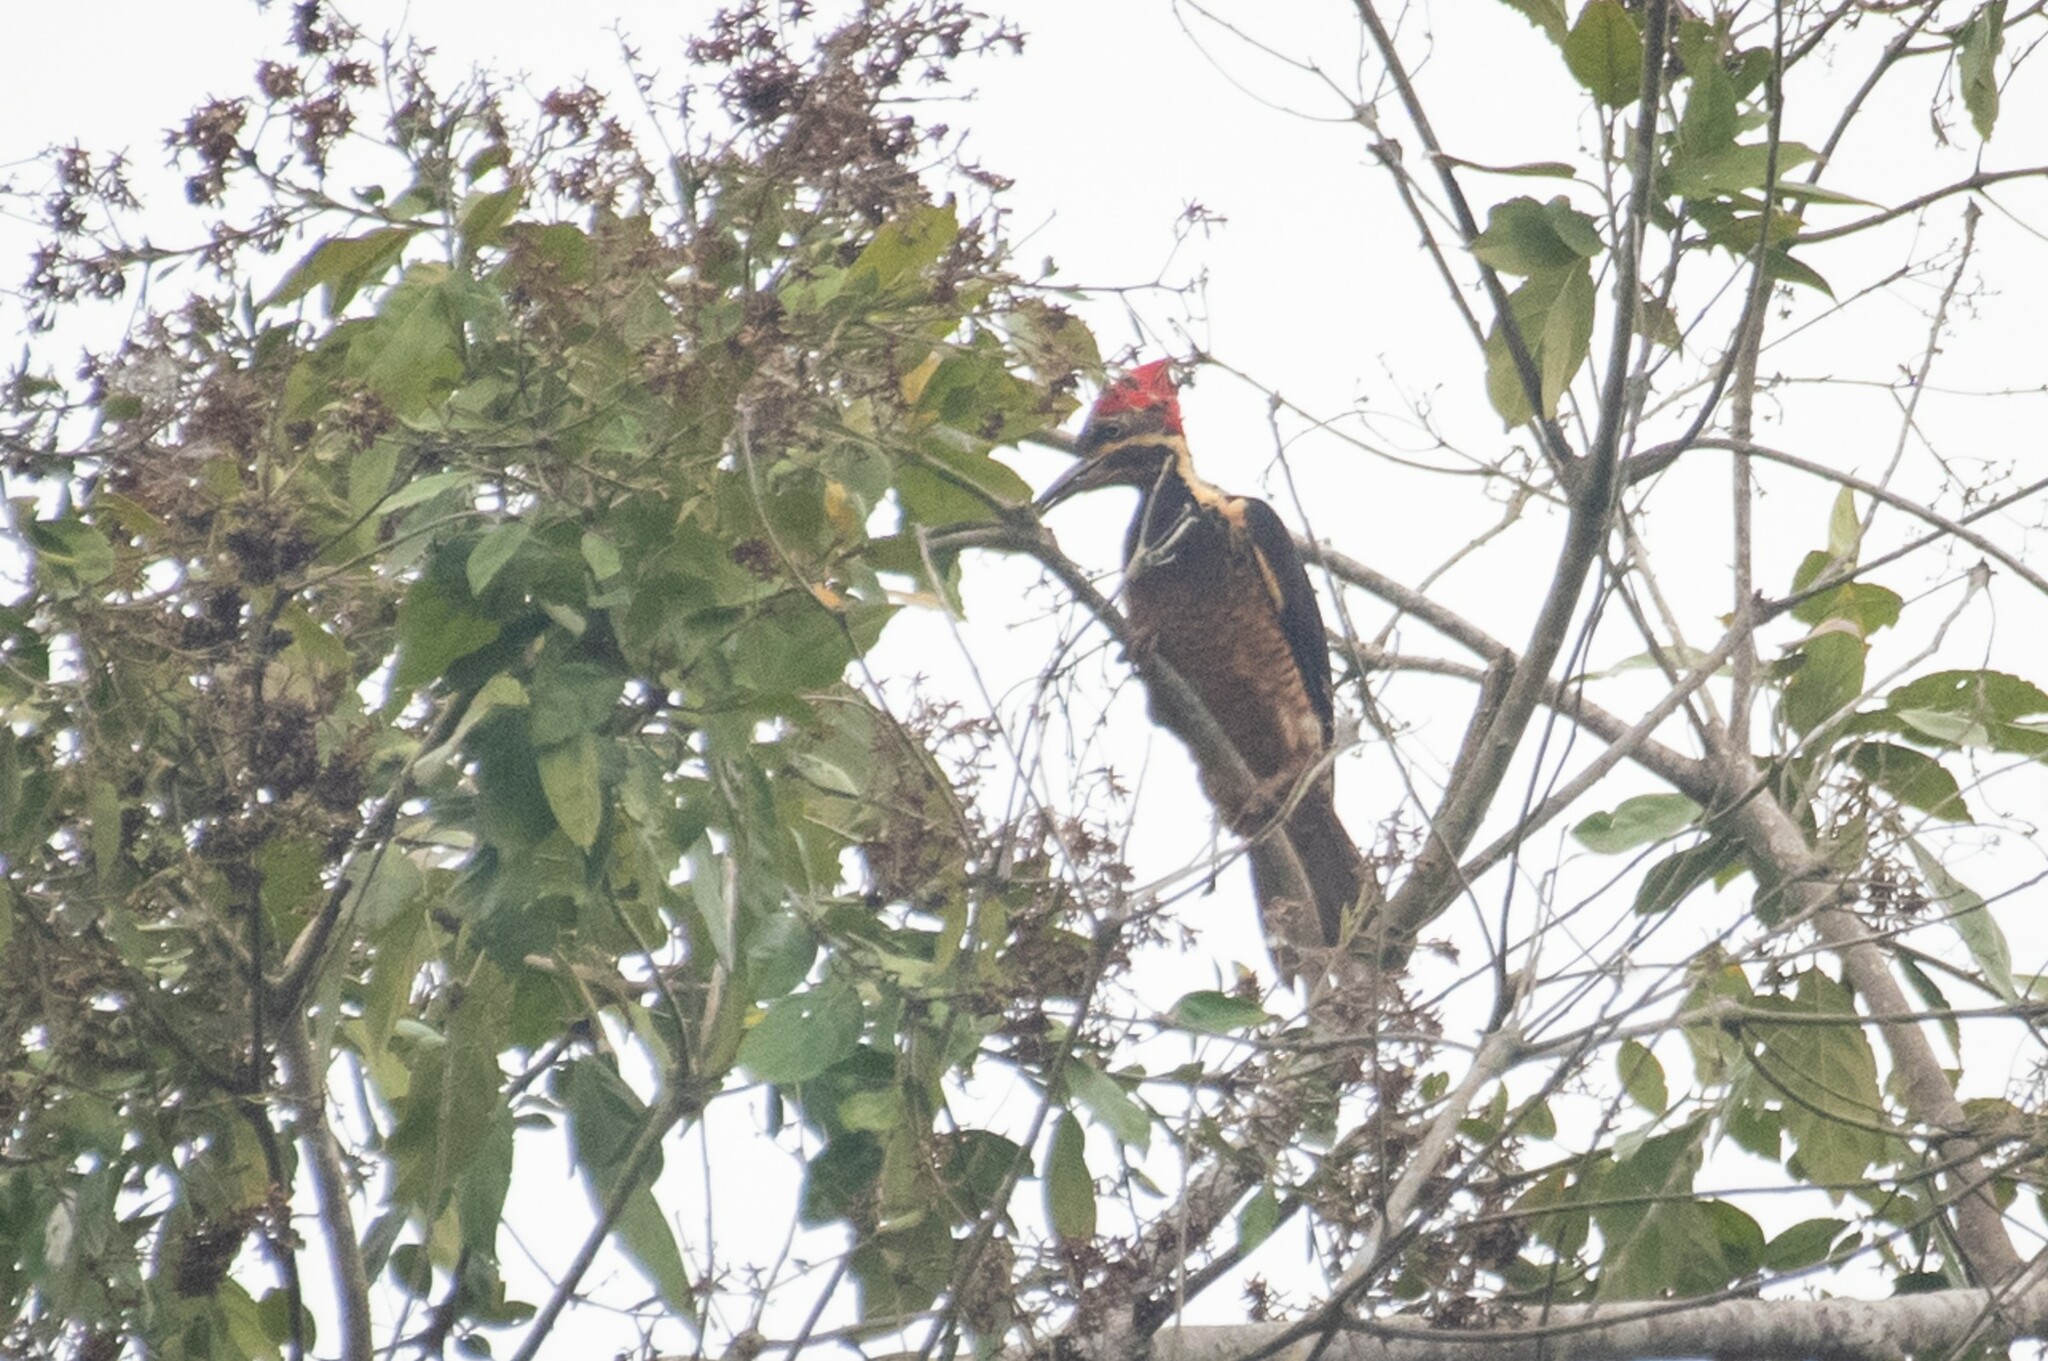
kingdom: Animalia
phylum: Chordata
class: Aves
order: Piciformes
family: Picidae
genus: Dryocopus
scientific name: Dryocopus lineatus
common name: Lineated woodpecker
